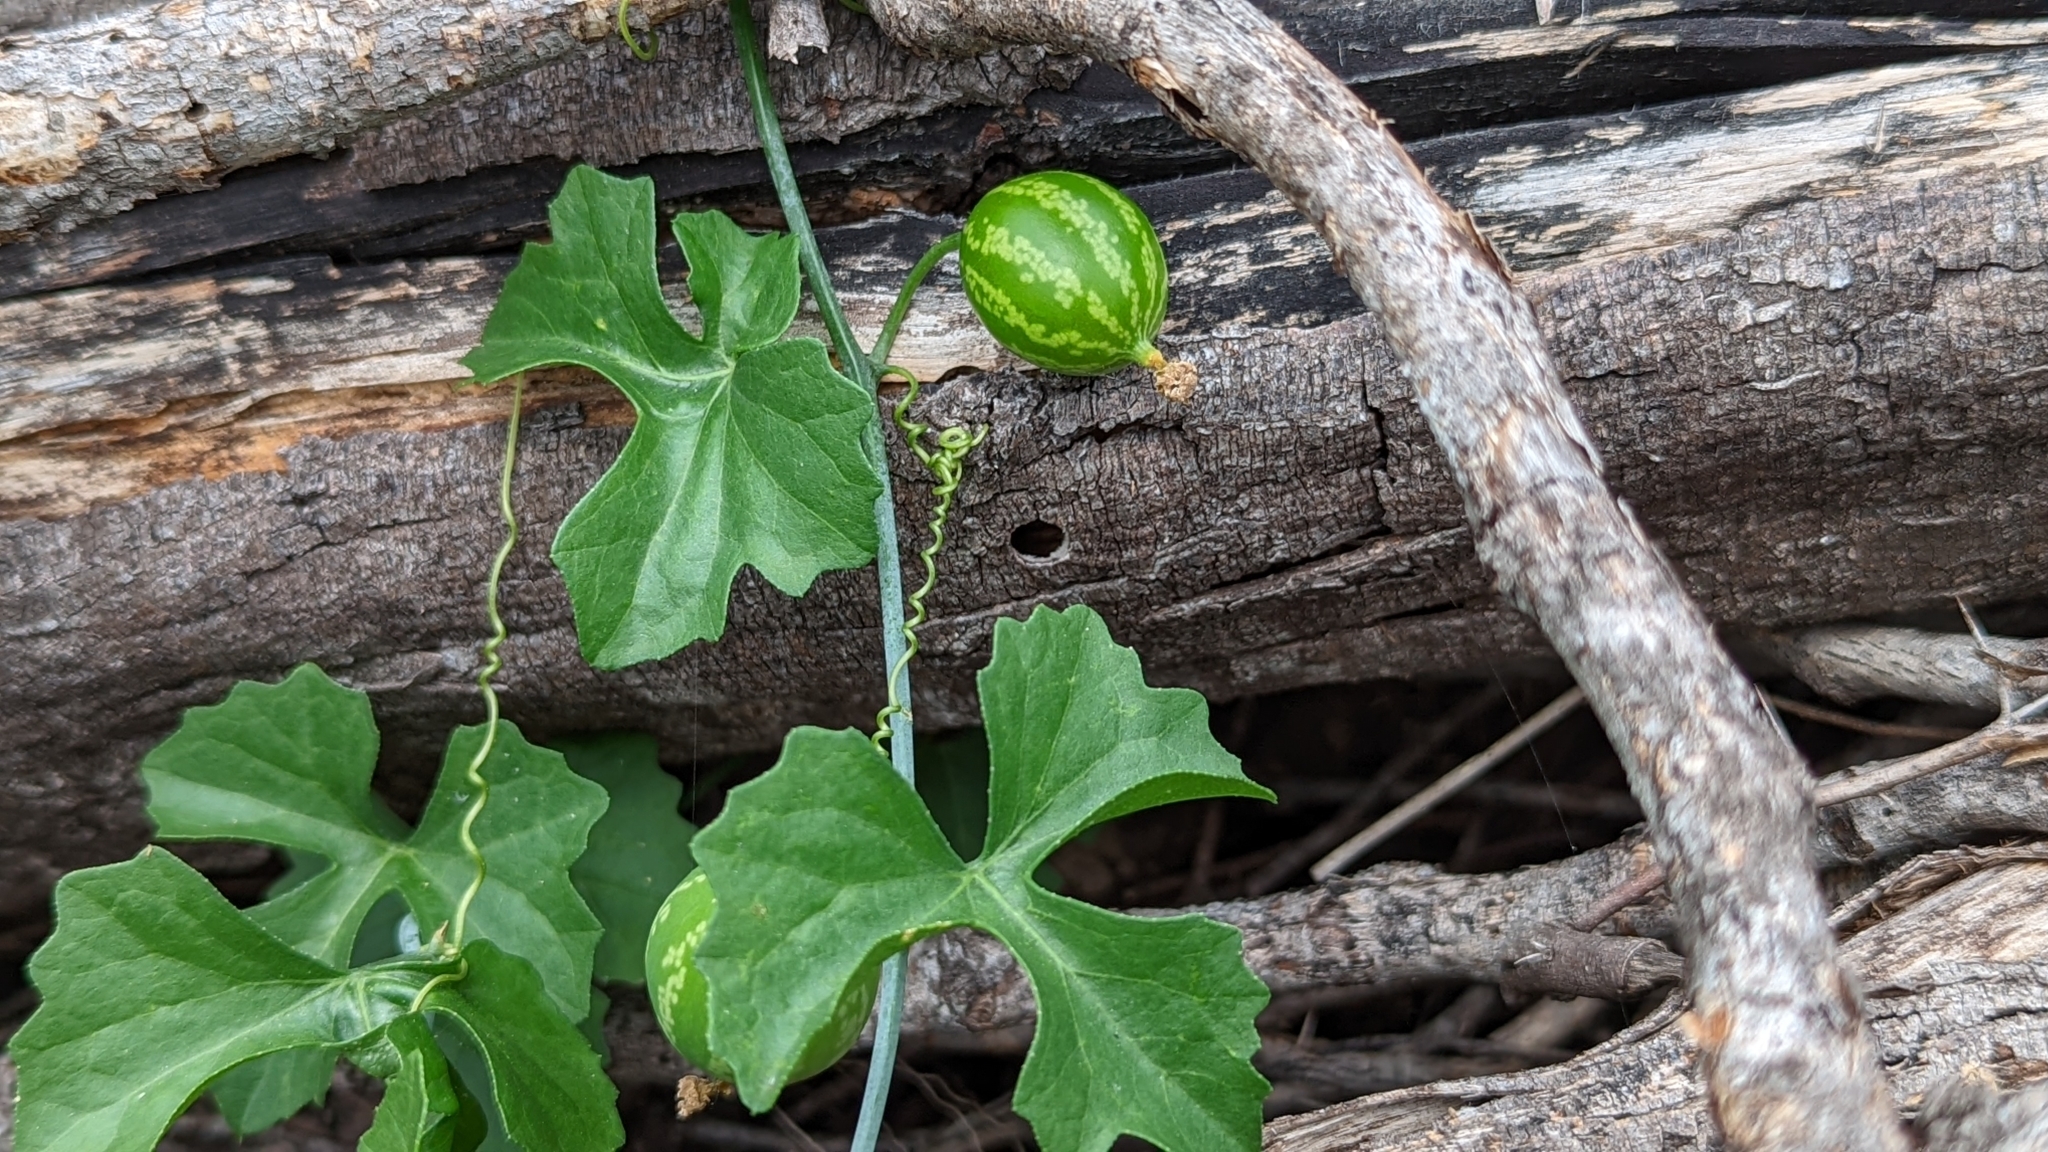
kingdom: Plantae
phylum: Tracheophyta
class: Magnoliopsida
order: Cucurbitales
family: Cucurbitaceae
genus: Ibervillea
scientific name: Ibervillea lindheimeri
